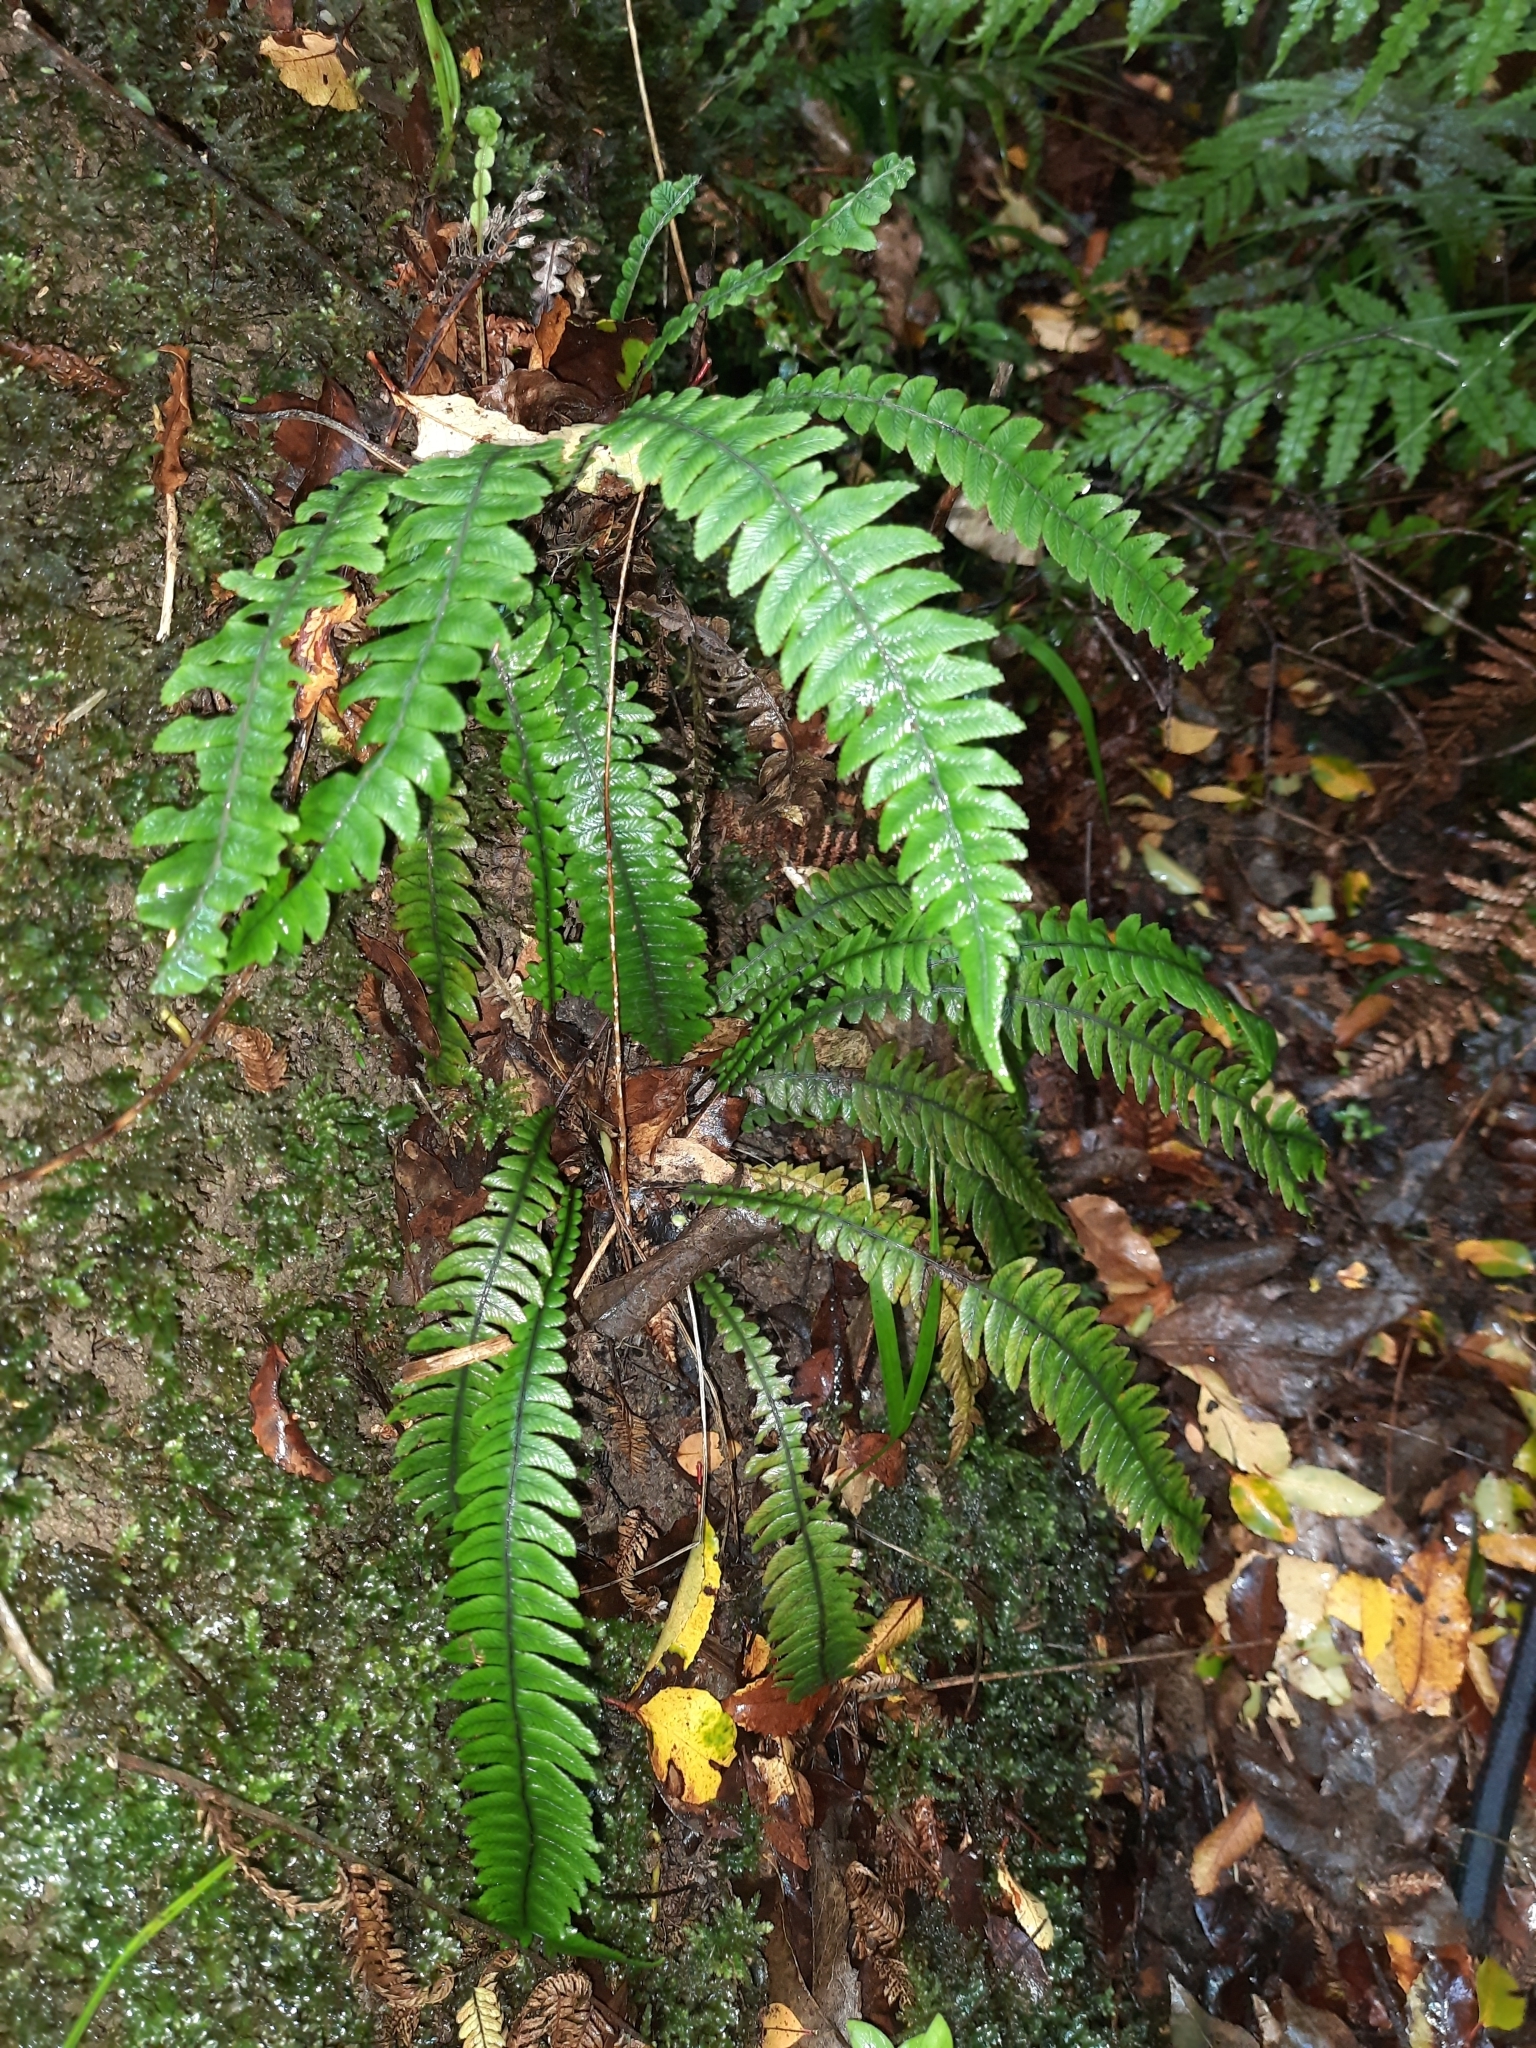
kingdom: Plantae
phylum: Tracheophyta
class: Polypodiopsida
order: Polypodiales
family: Blechnaceae
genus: Austroblechnum
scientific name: Austroblechnum lanceolatum
